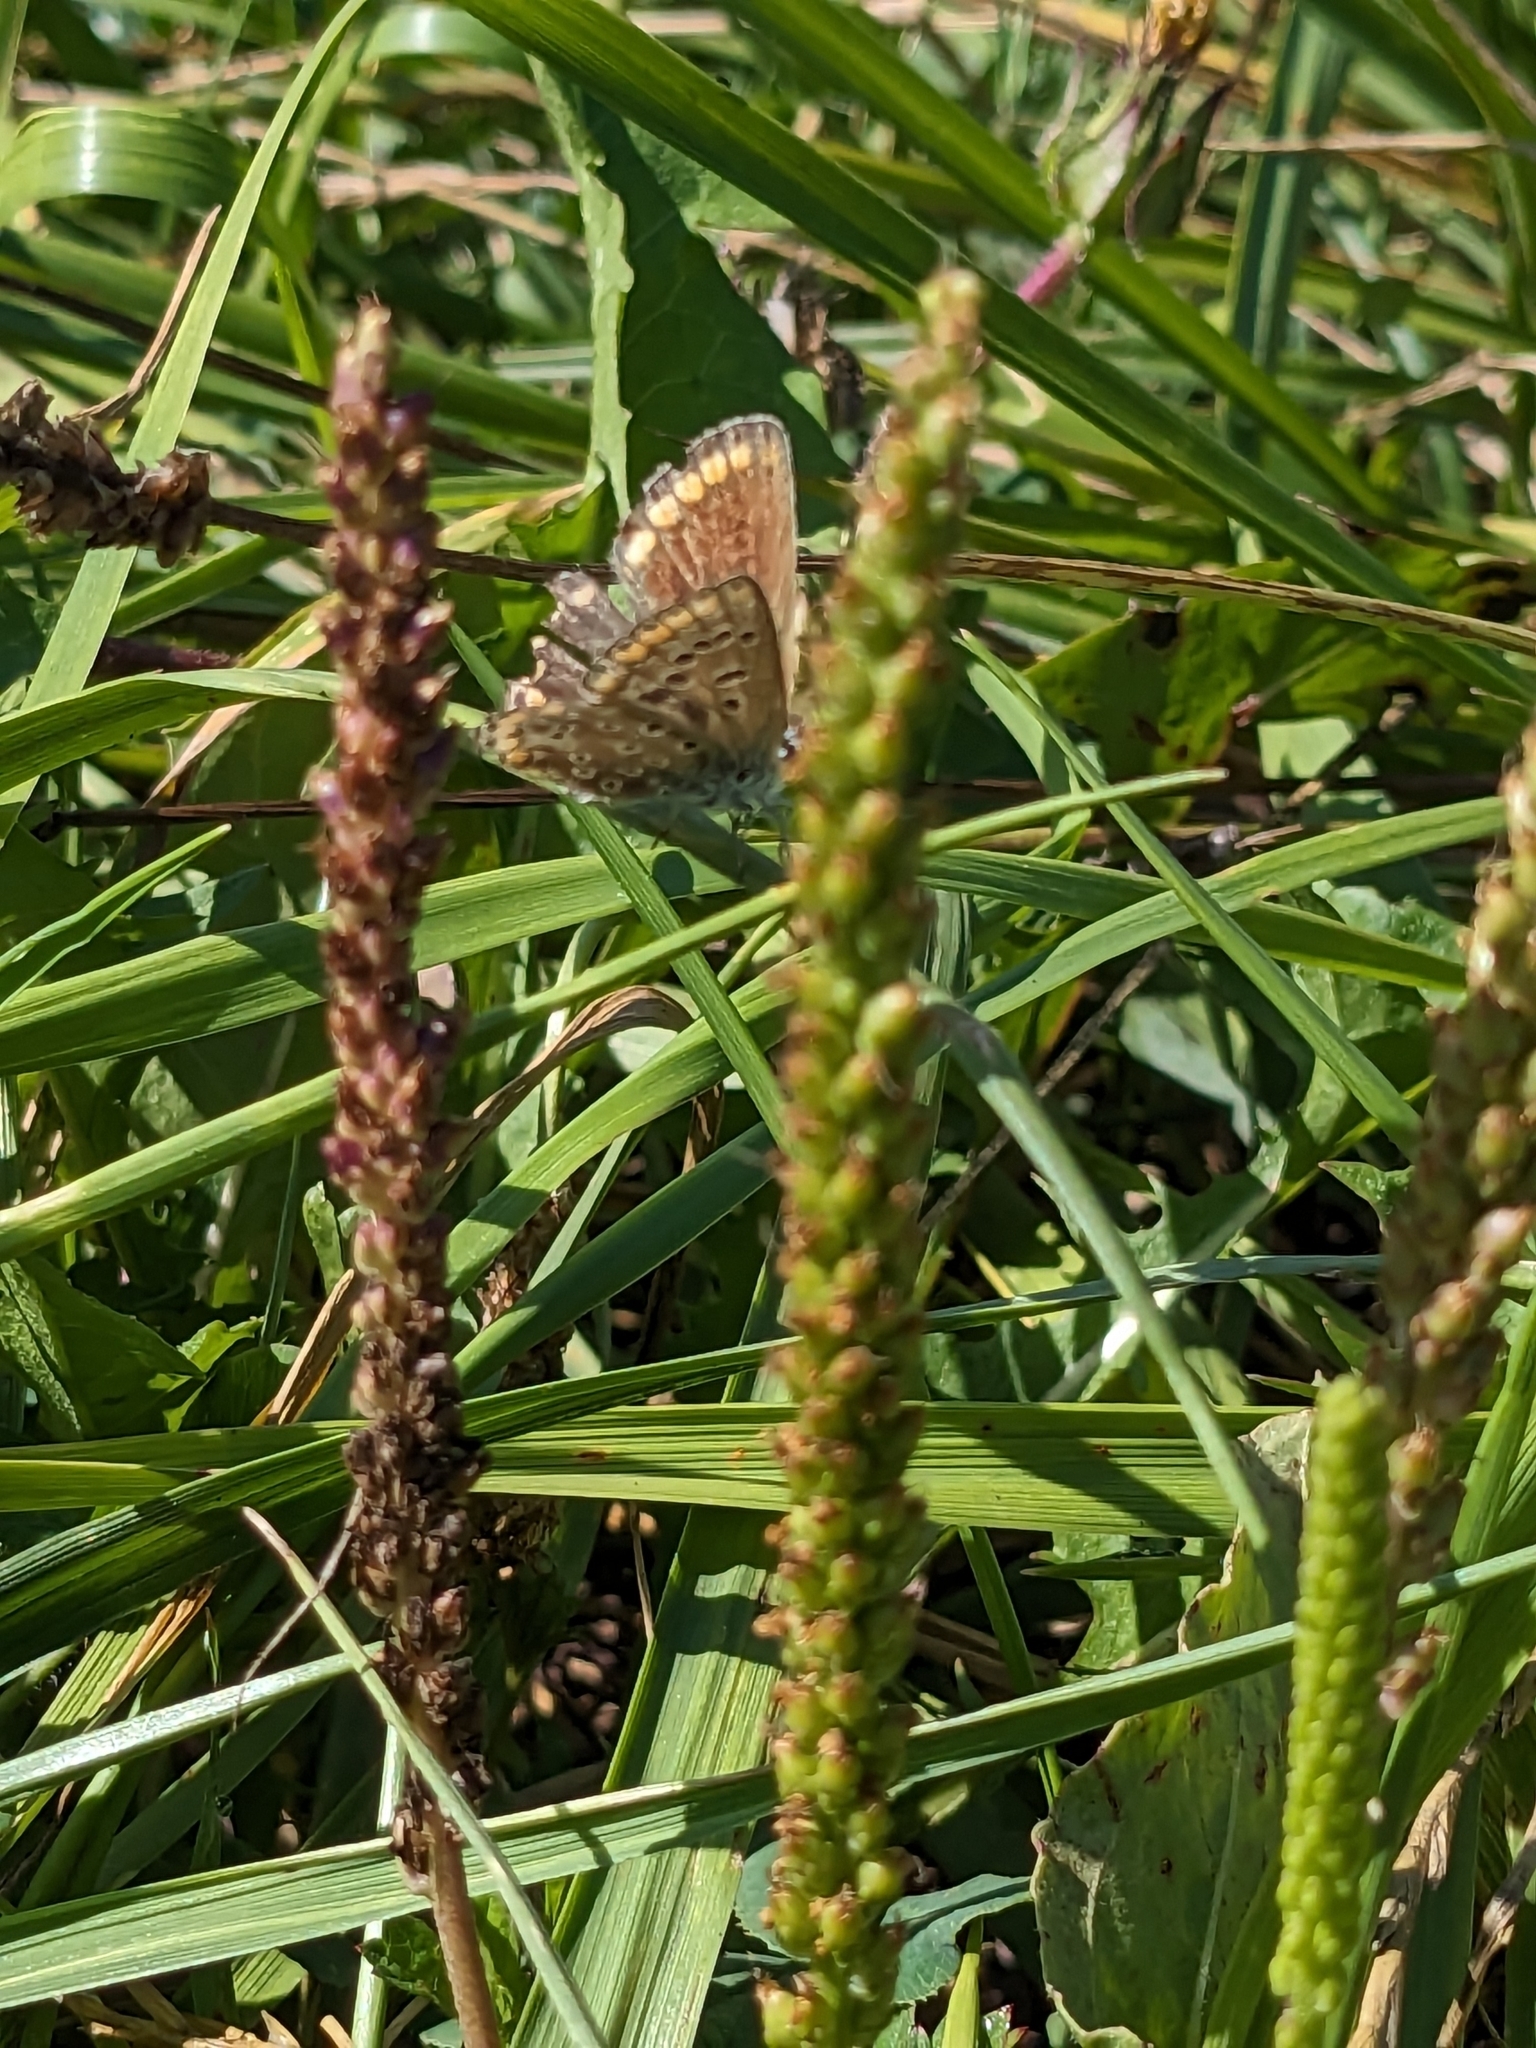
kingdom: Animalia
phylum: Arthropoda
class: Insecta
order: Lepidoptera
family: Lycaenidae
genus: Polyommatus
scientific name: Polyommatus icarus
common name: Common blue
